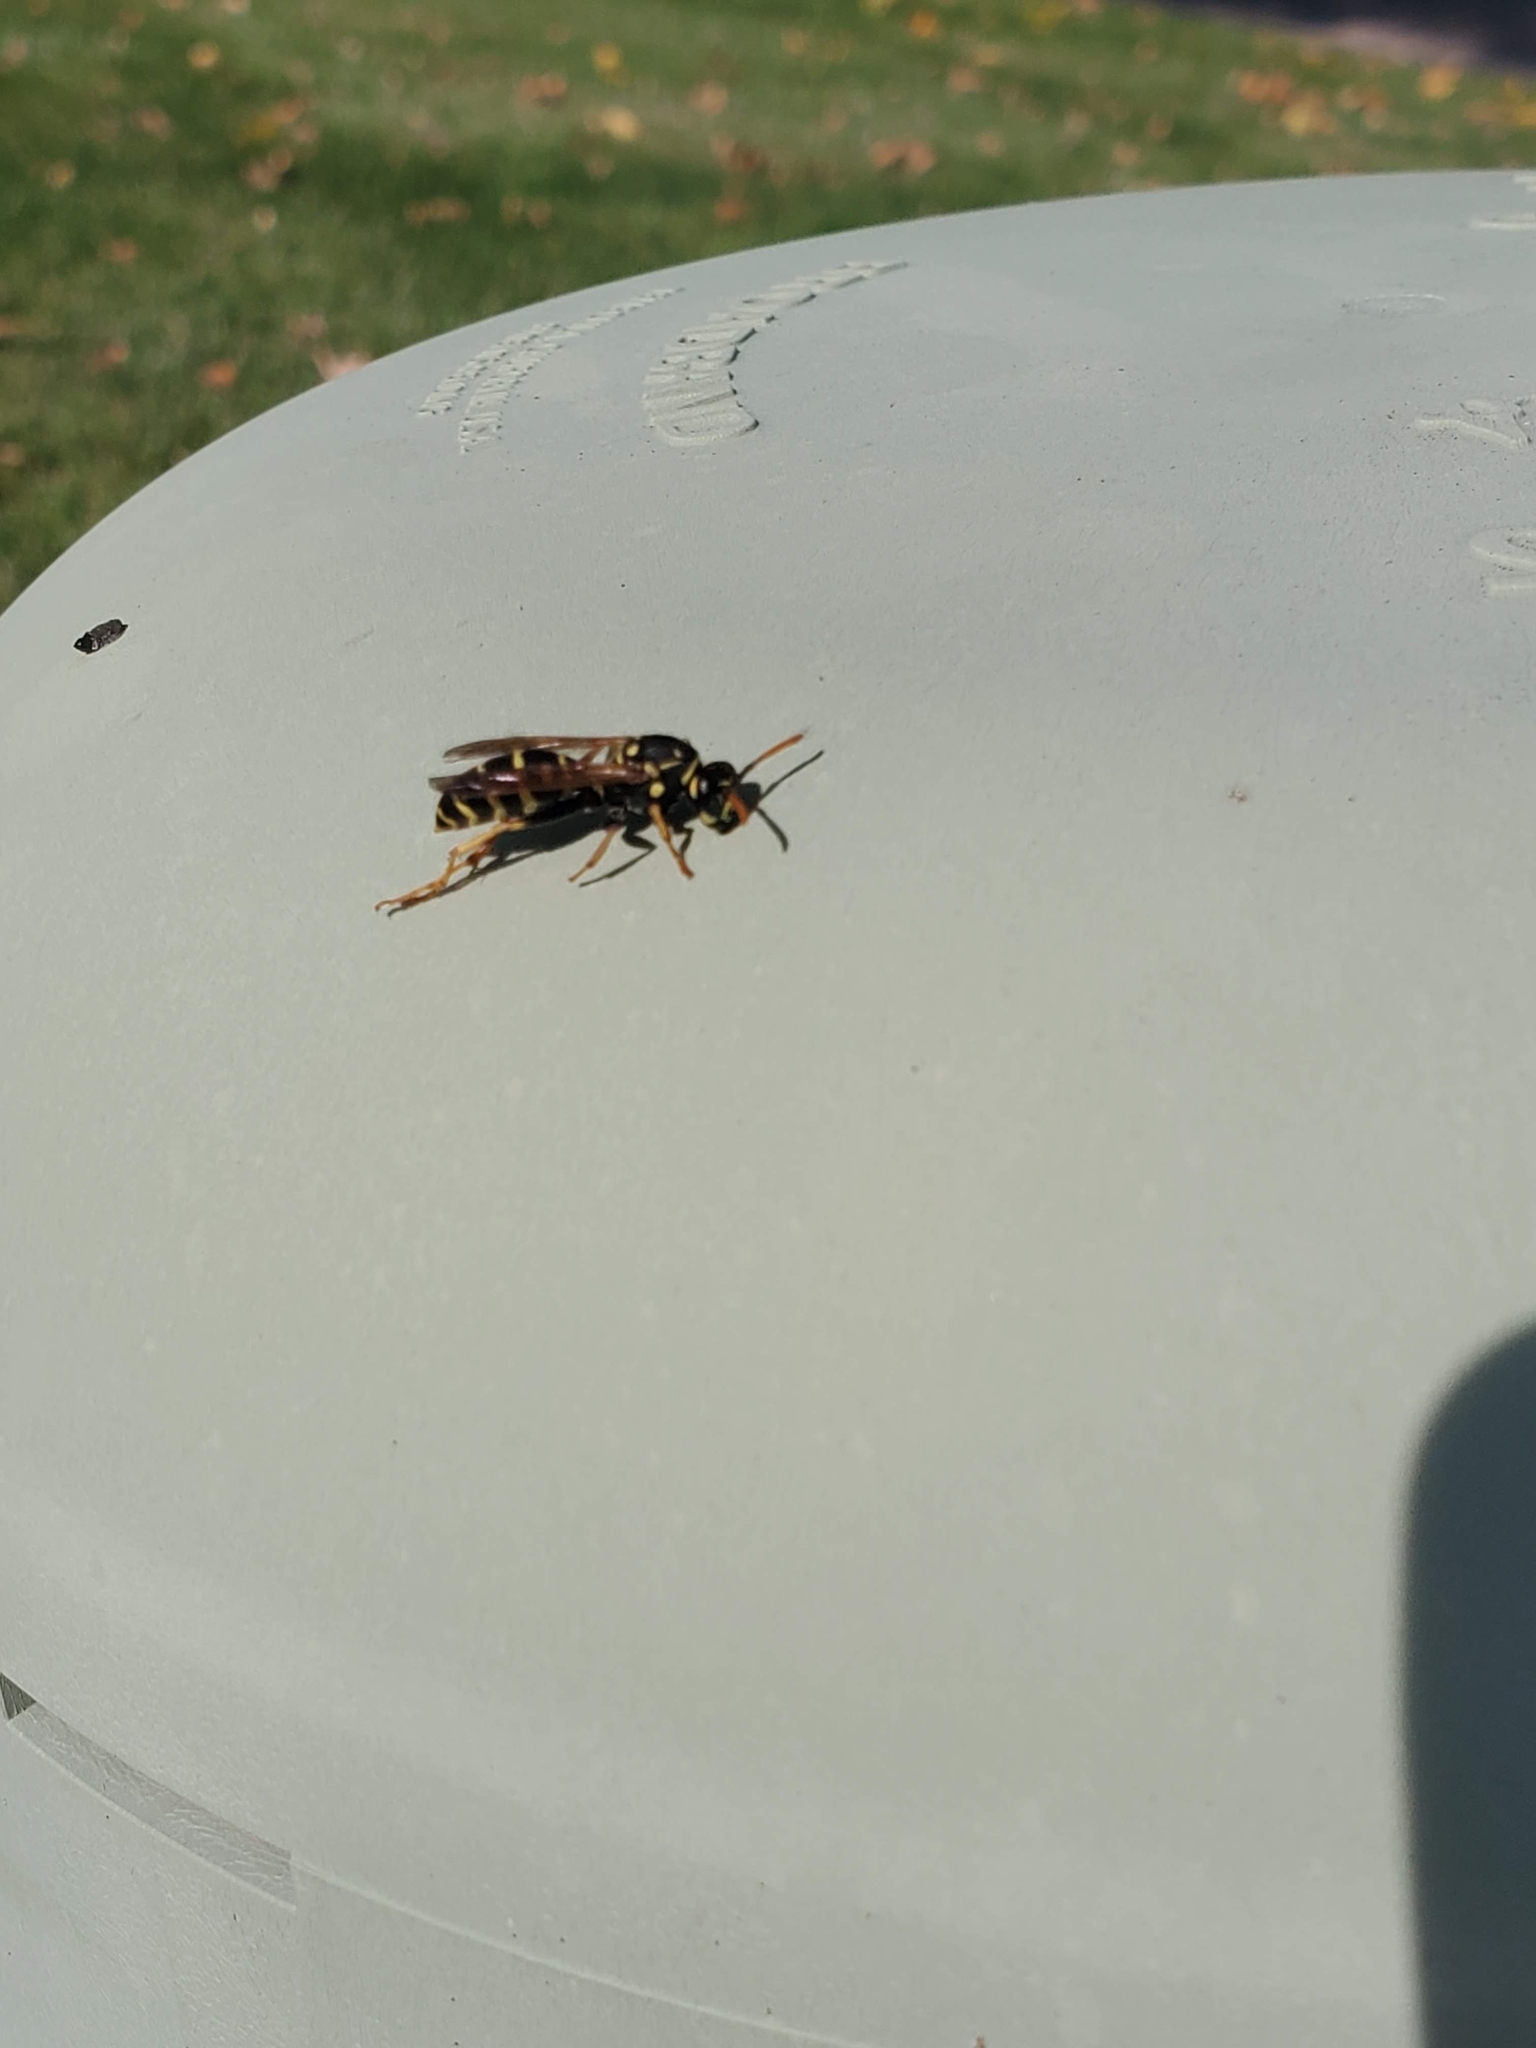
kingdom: Animalia
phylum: Arthropoda
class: Insecta
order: Hymenoptera
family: Eumenidae
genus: Polistes
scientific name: Polistes dominula
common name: Paper wasp
